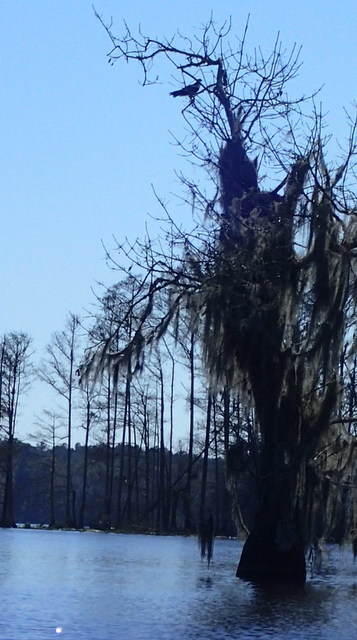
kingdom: Animalia
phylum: Chordata
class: Aves
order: Accipitriformes
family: Pandionidae
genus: Pandion
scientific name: Pandion haliaetus
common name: Osprey
